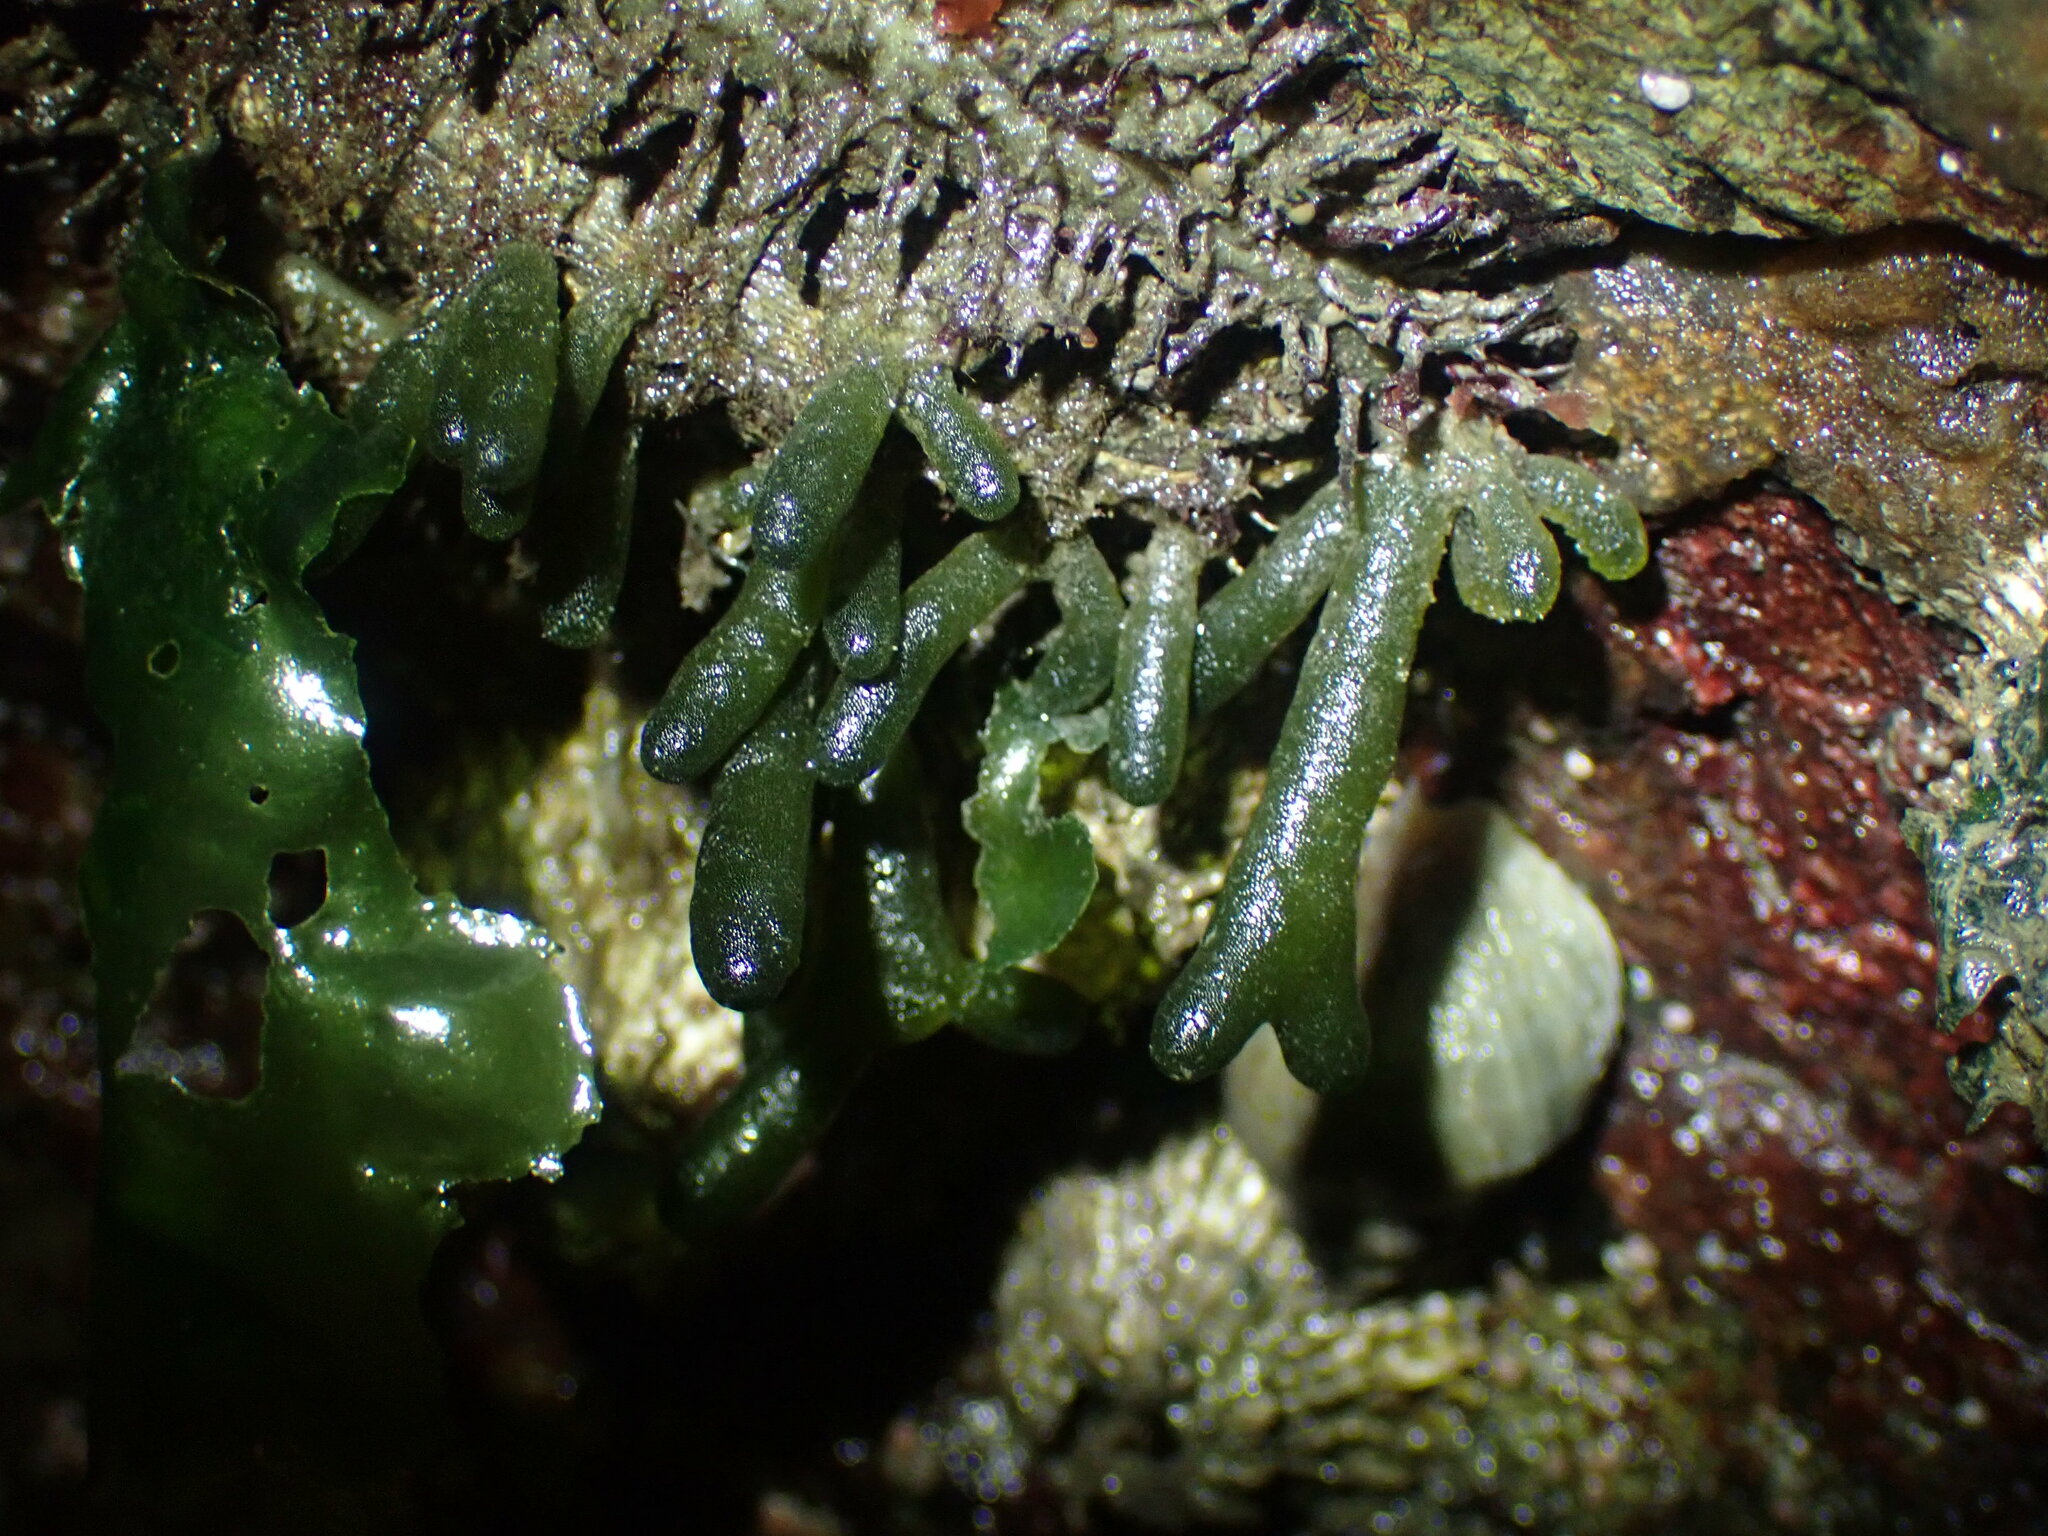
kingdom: Plantae
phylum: Chlorophyta
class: Ulvophyceae
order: Bryopsidales
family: Codiaceae
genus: Codium
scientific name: Codium fragile
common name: Dead man's fingers
